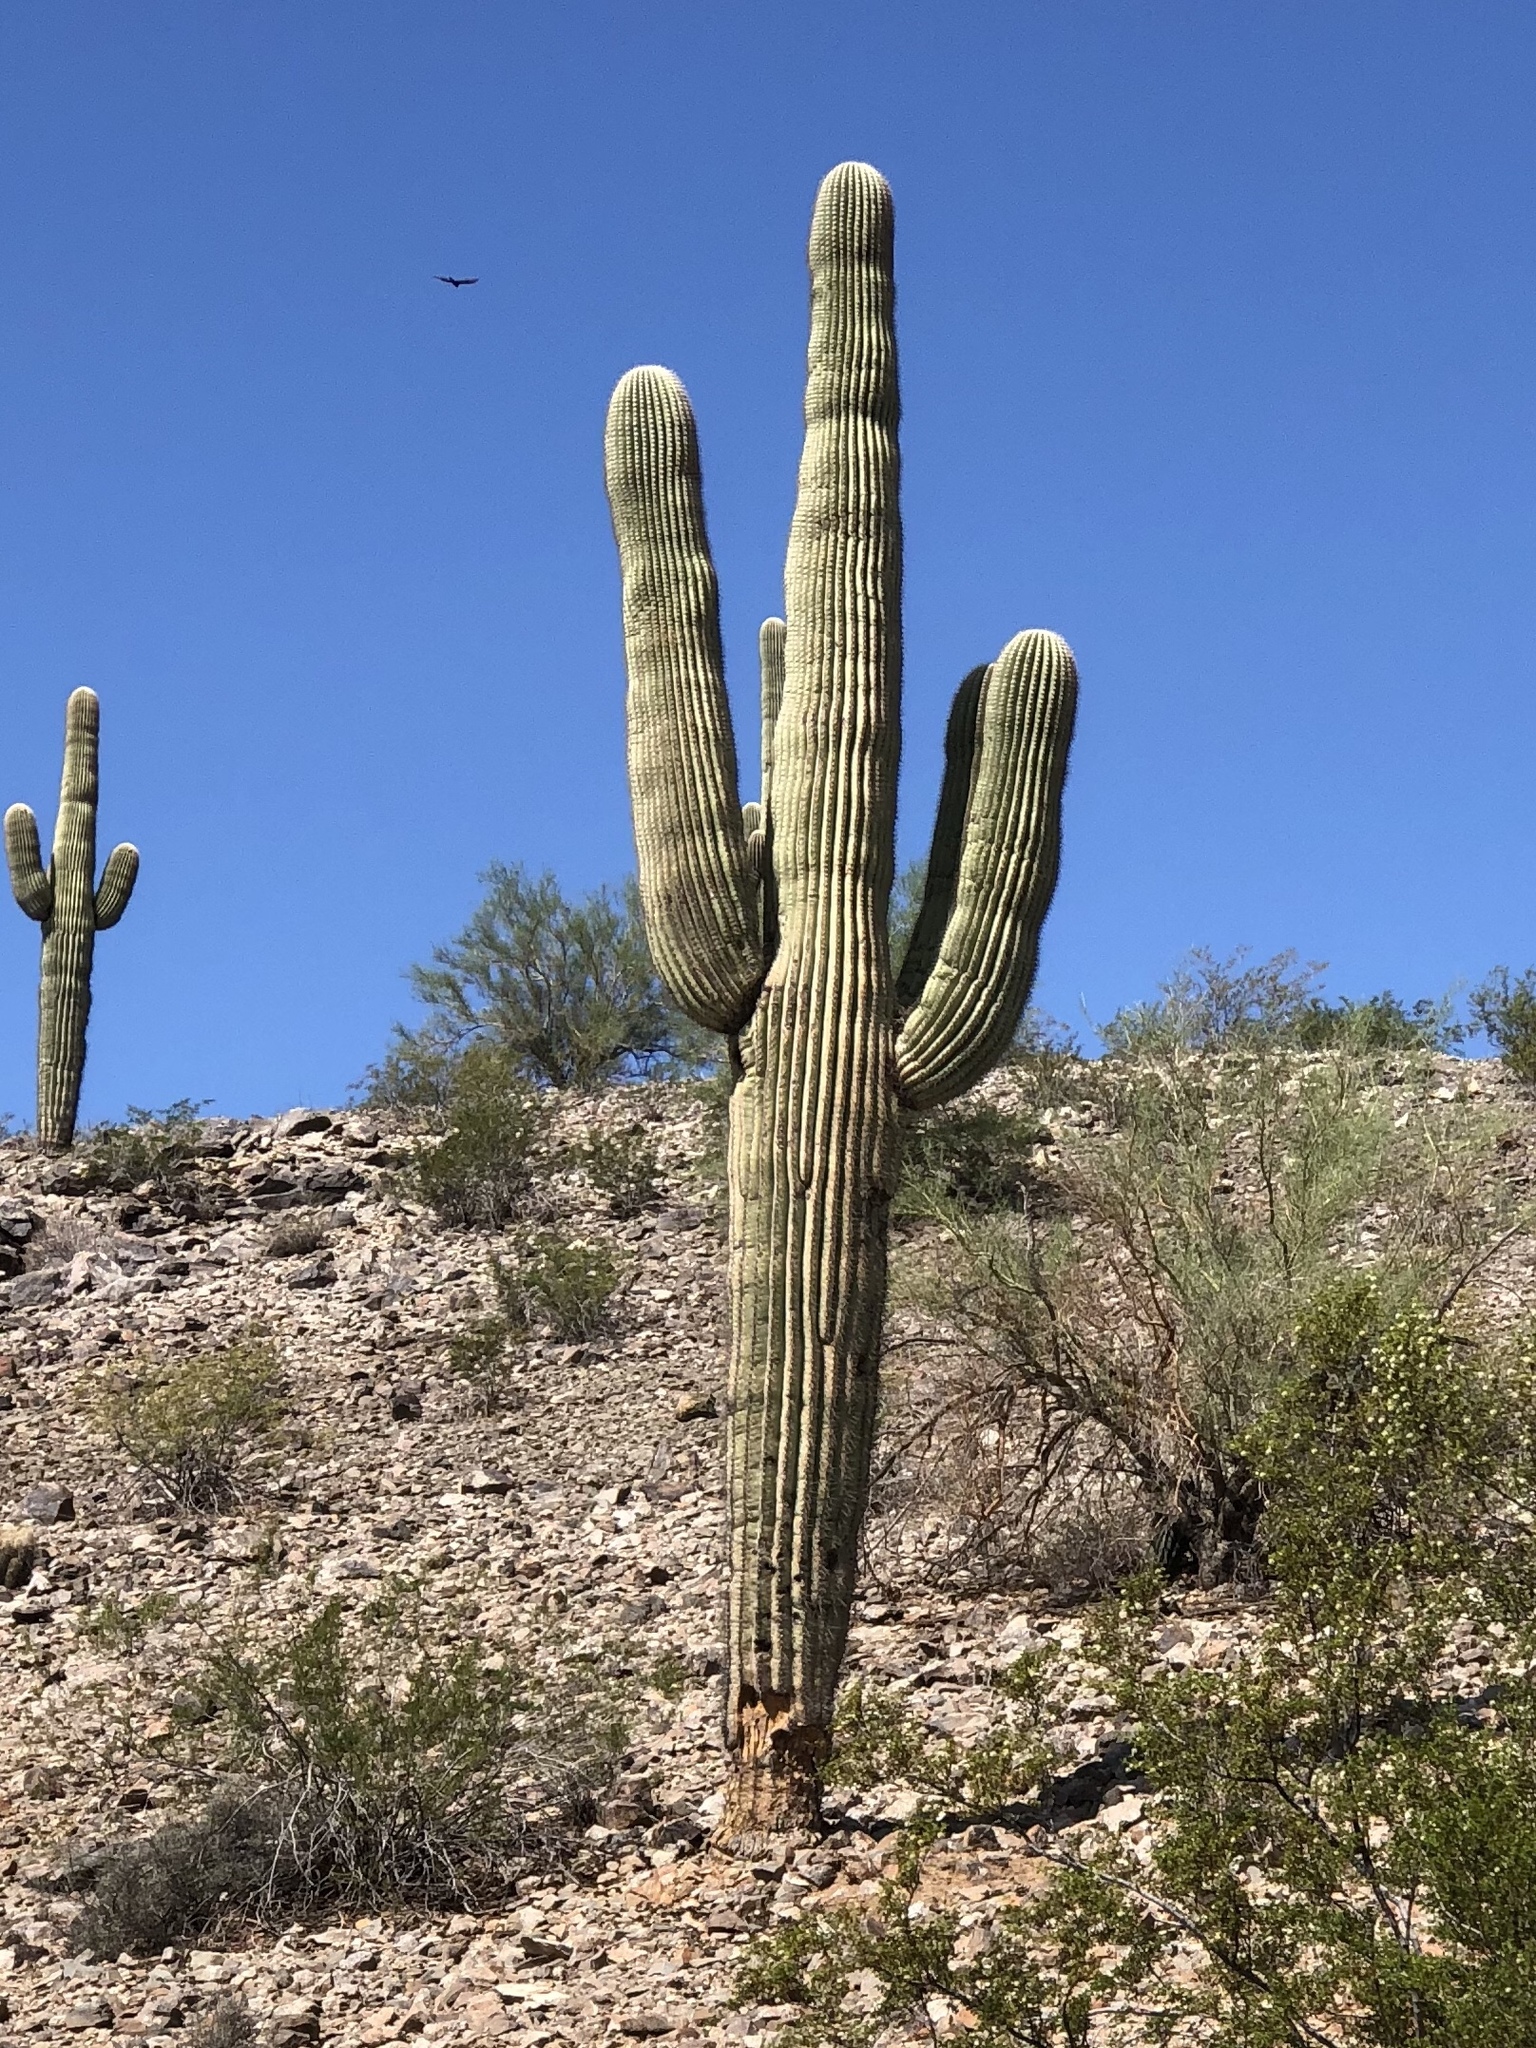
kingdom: Plantae
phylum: Tracheophyta
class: Magnoliopsida
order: Caryophyllales
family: Cactaceae
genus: Carnegiea
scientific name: Carnegiea gigantea
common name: Saguaro
